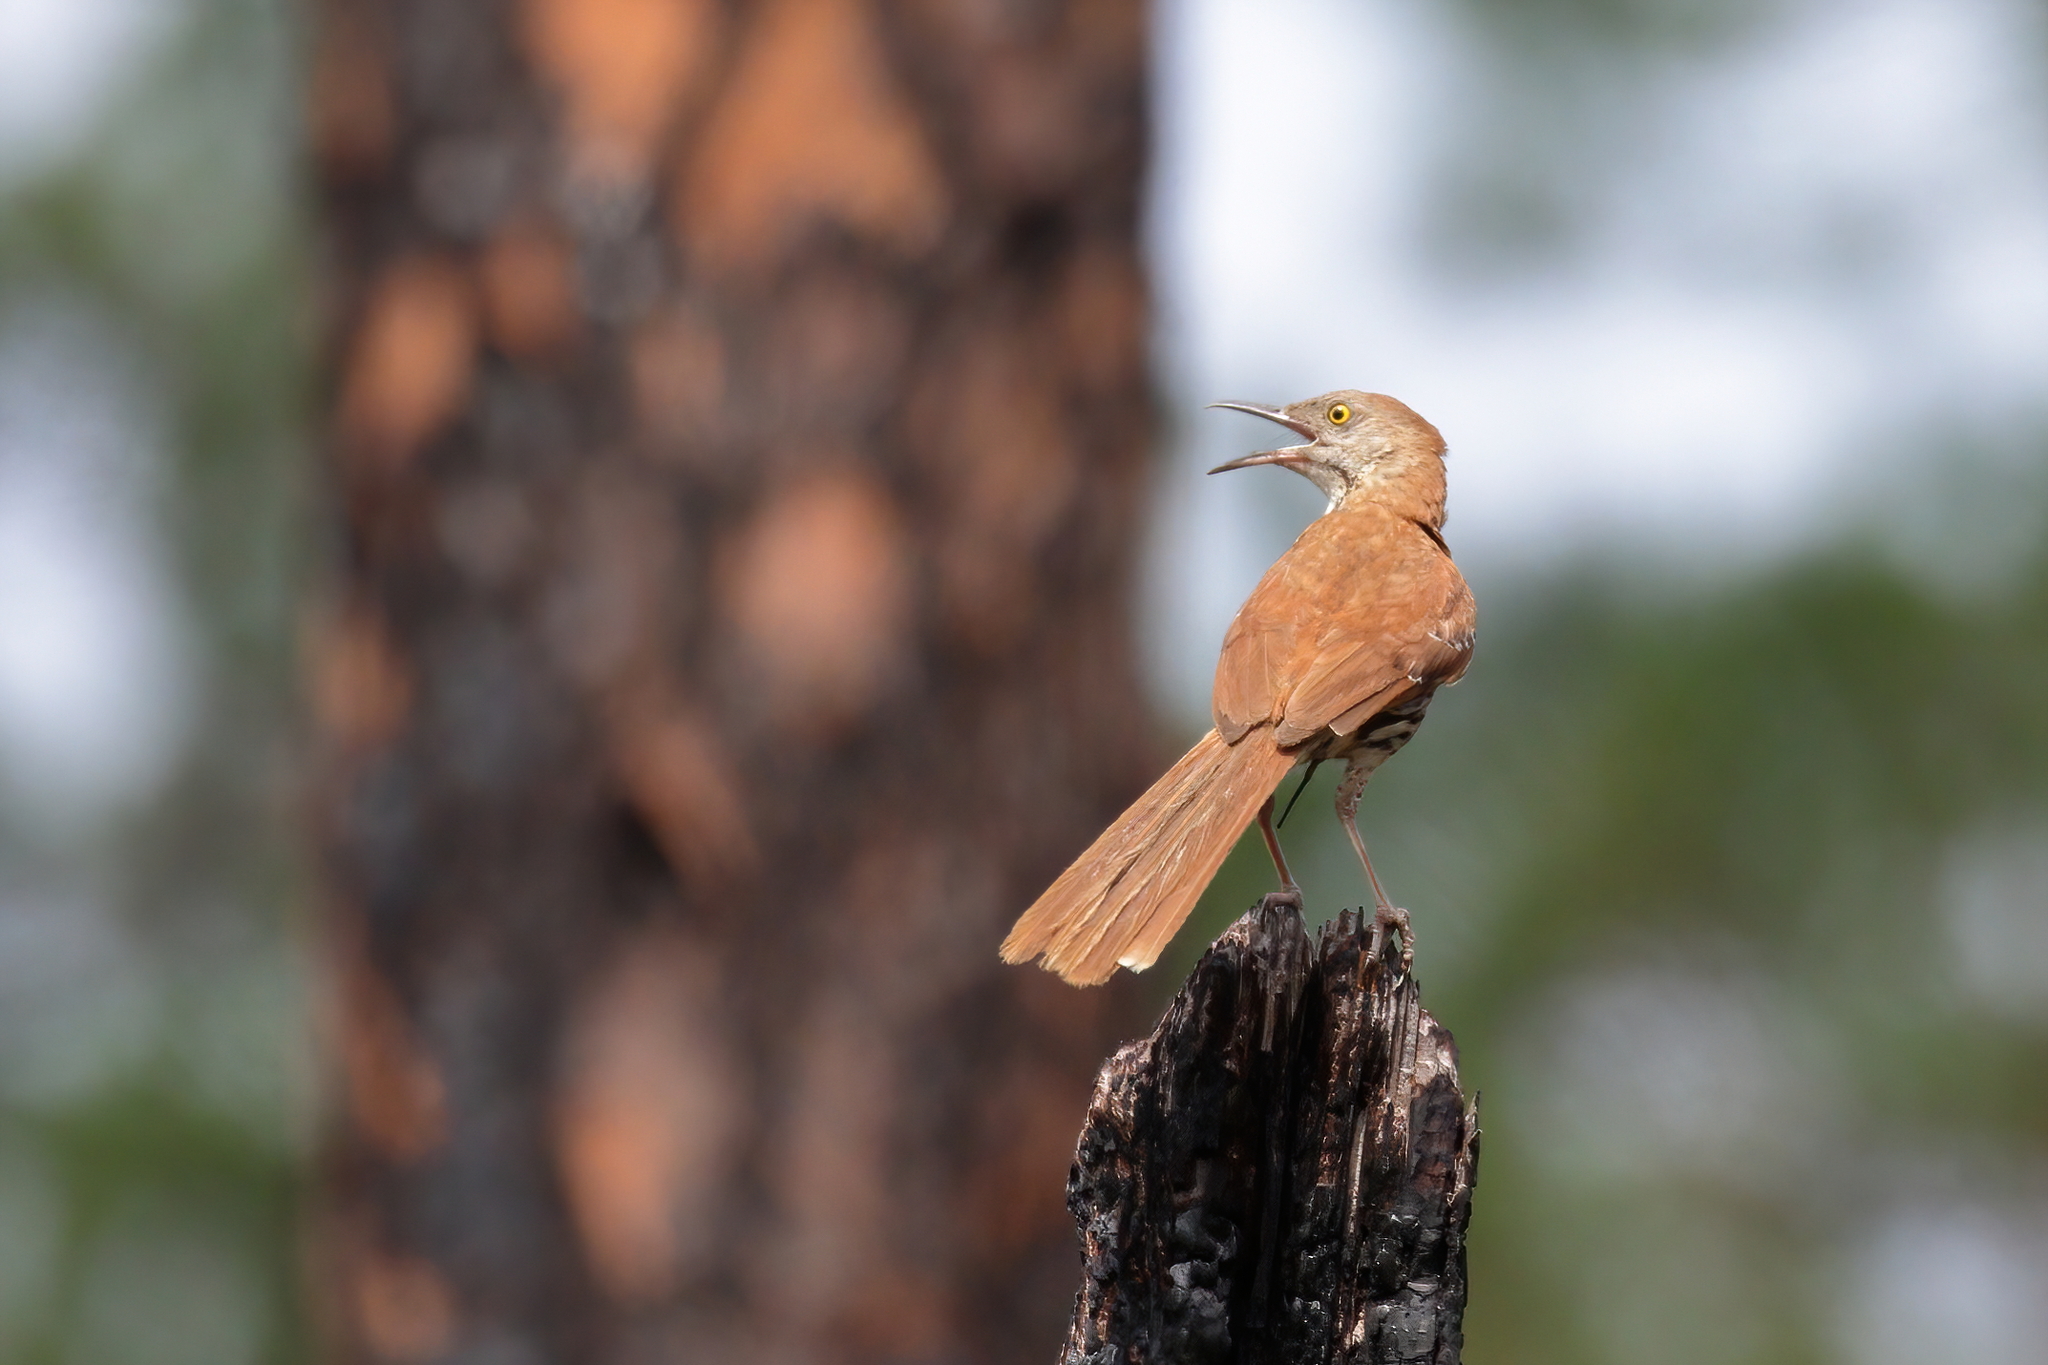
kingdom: Animalia
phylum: Chordata
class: Aves
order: Passeriformes
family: Mimidae
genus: Toxostoma
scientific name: Toxostoma rufum
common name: Brown thrasher
